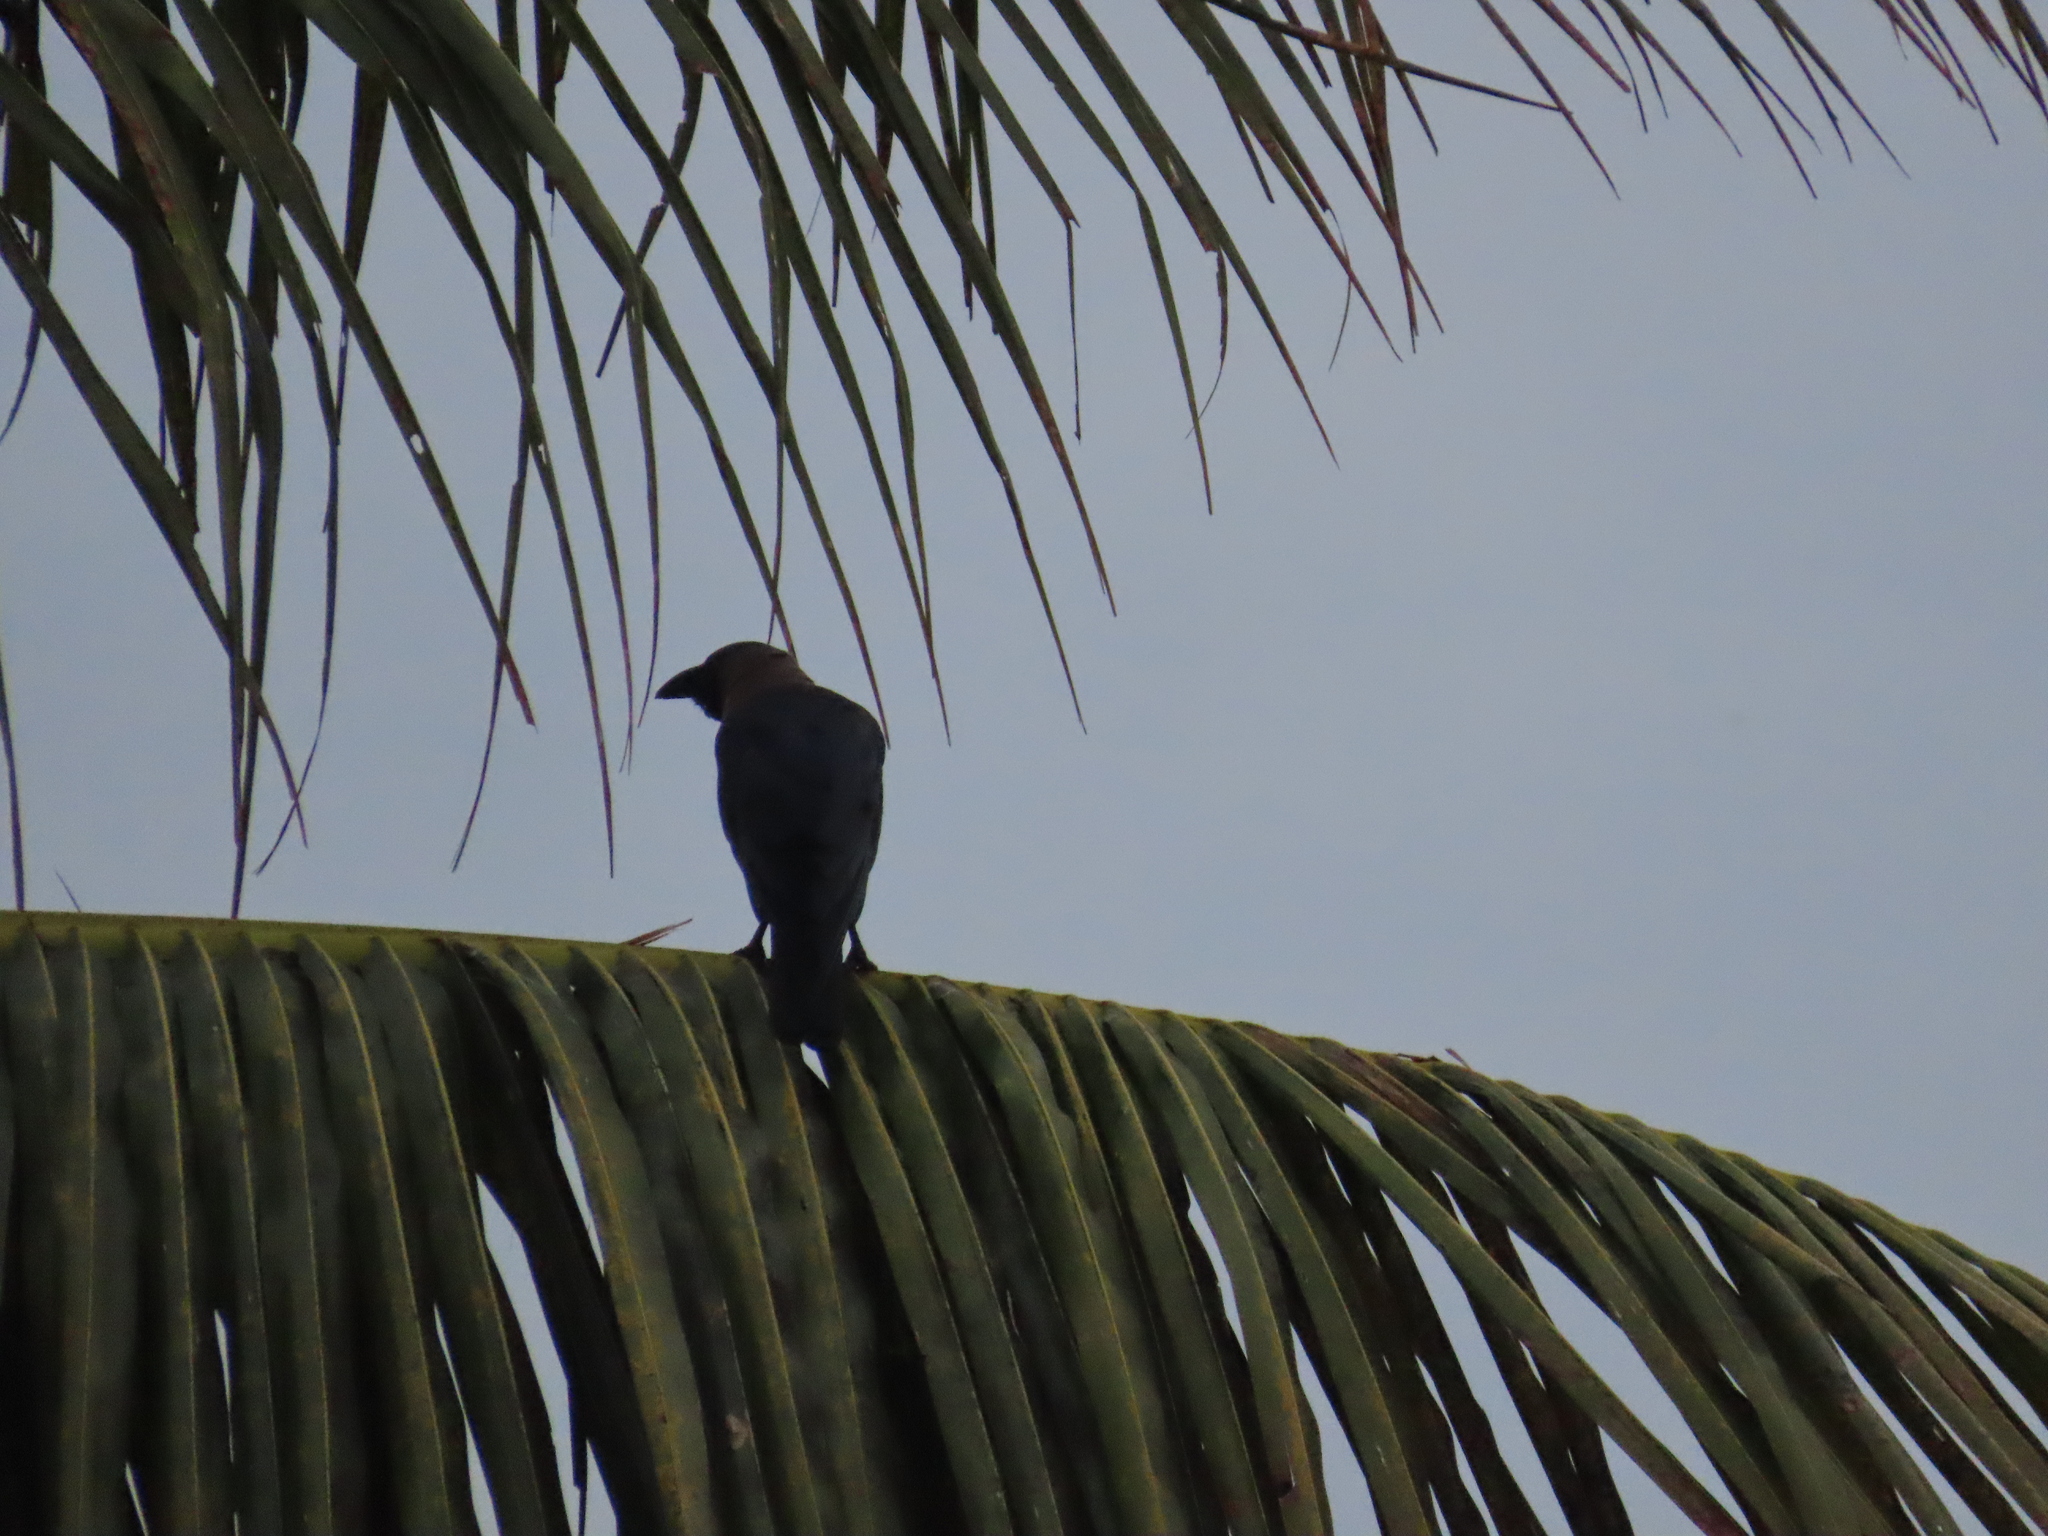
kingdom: Animalia
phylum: Chordata
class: Aves
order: Passeriformes
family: Corvidae
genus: Corvus
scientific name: Corvus splendens
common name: House crow
